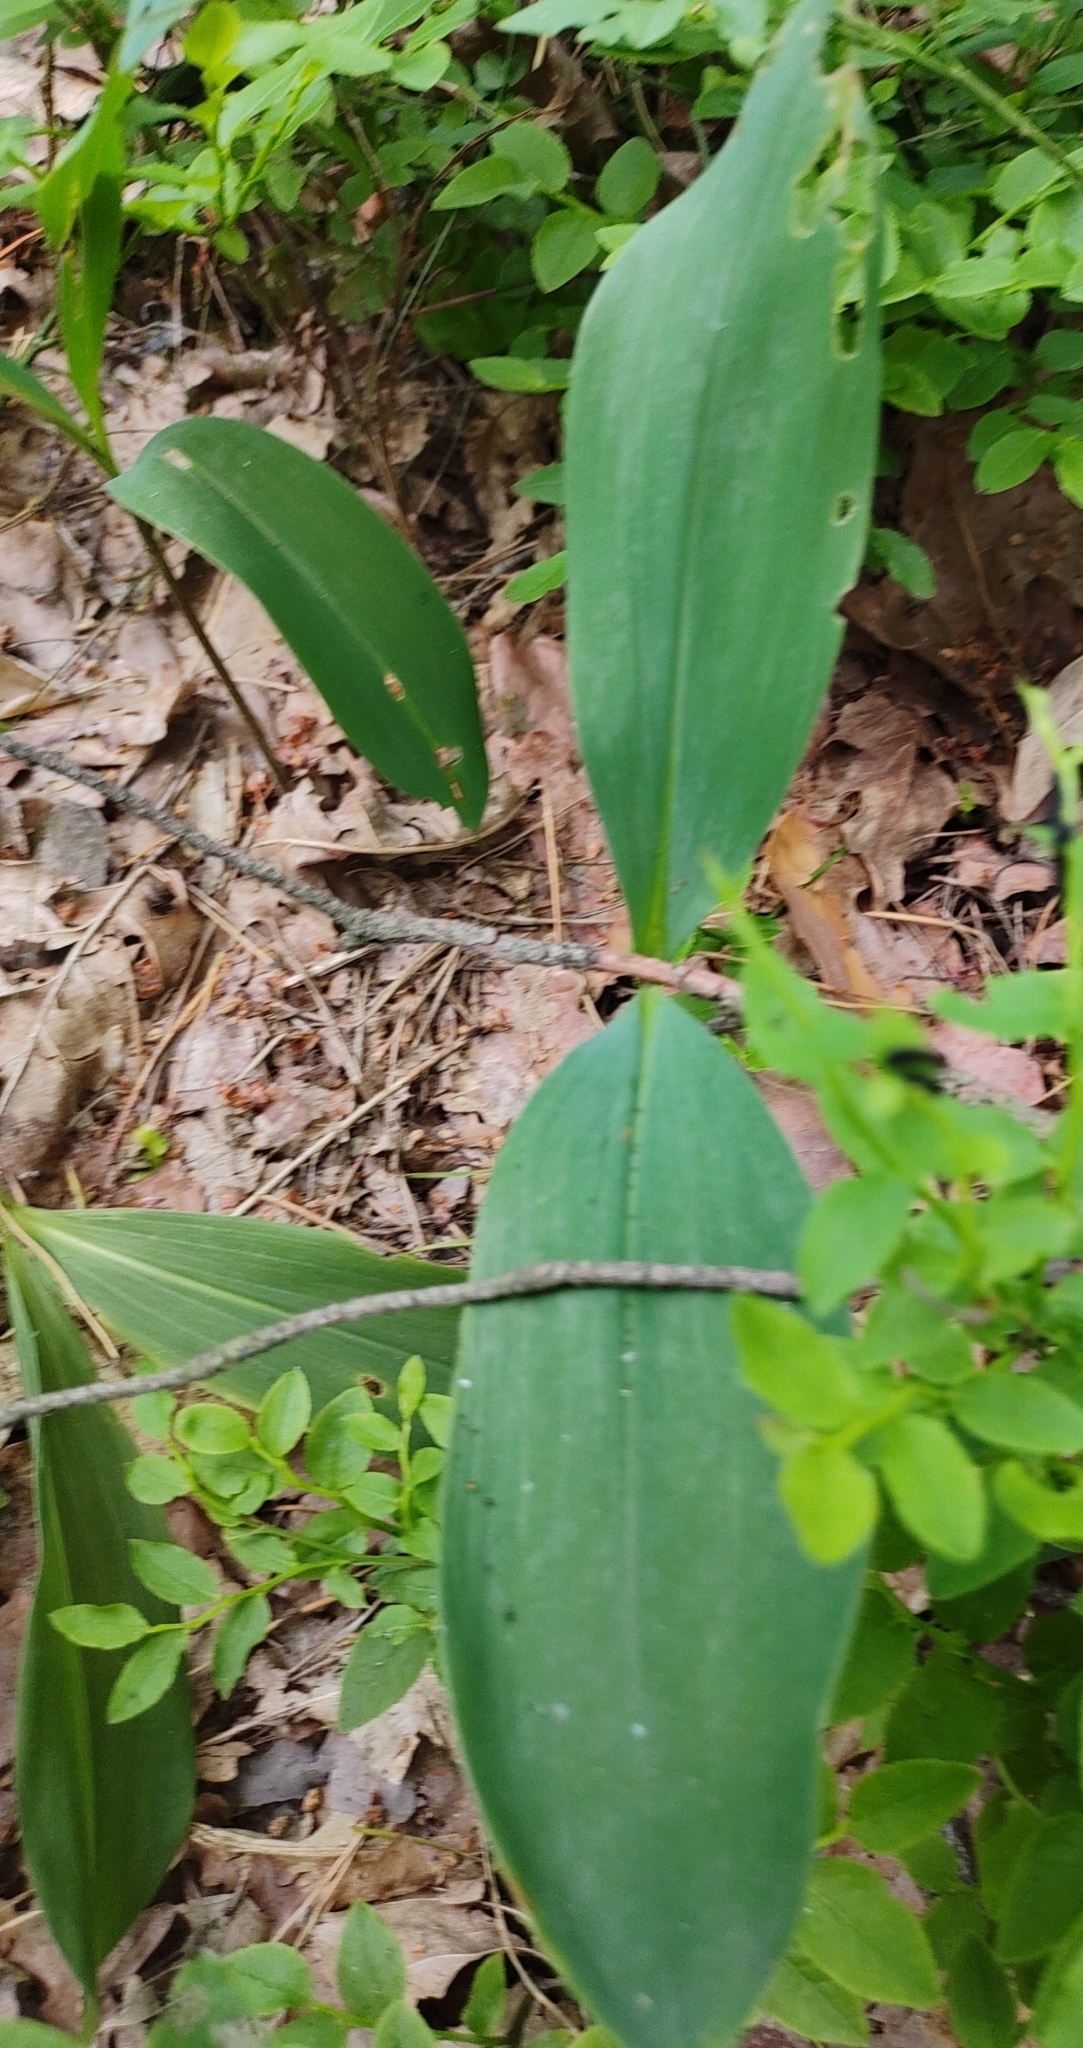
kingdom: Plantae
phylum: Tracheophyta
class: Liliopsida
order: Asparagales
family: Asparagaceae
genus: Convallaria
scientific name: Convallaria majalis
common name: Lily-of-the-valley
